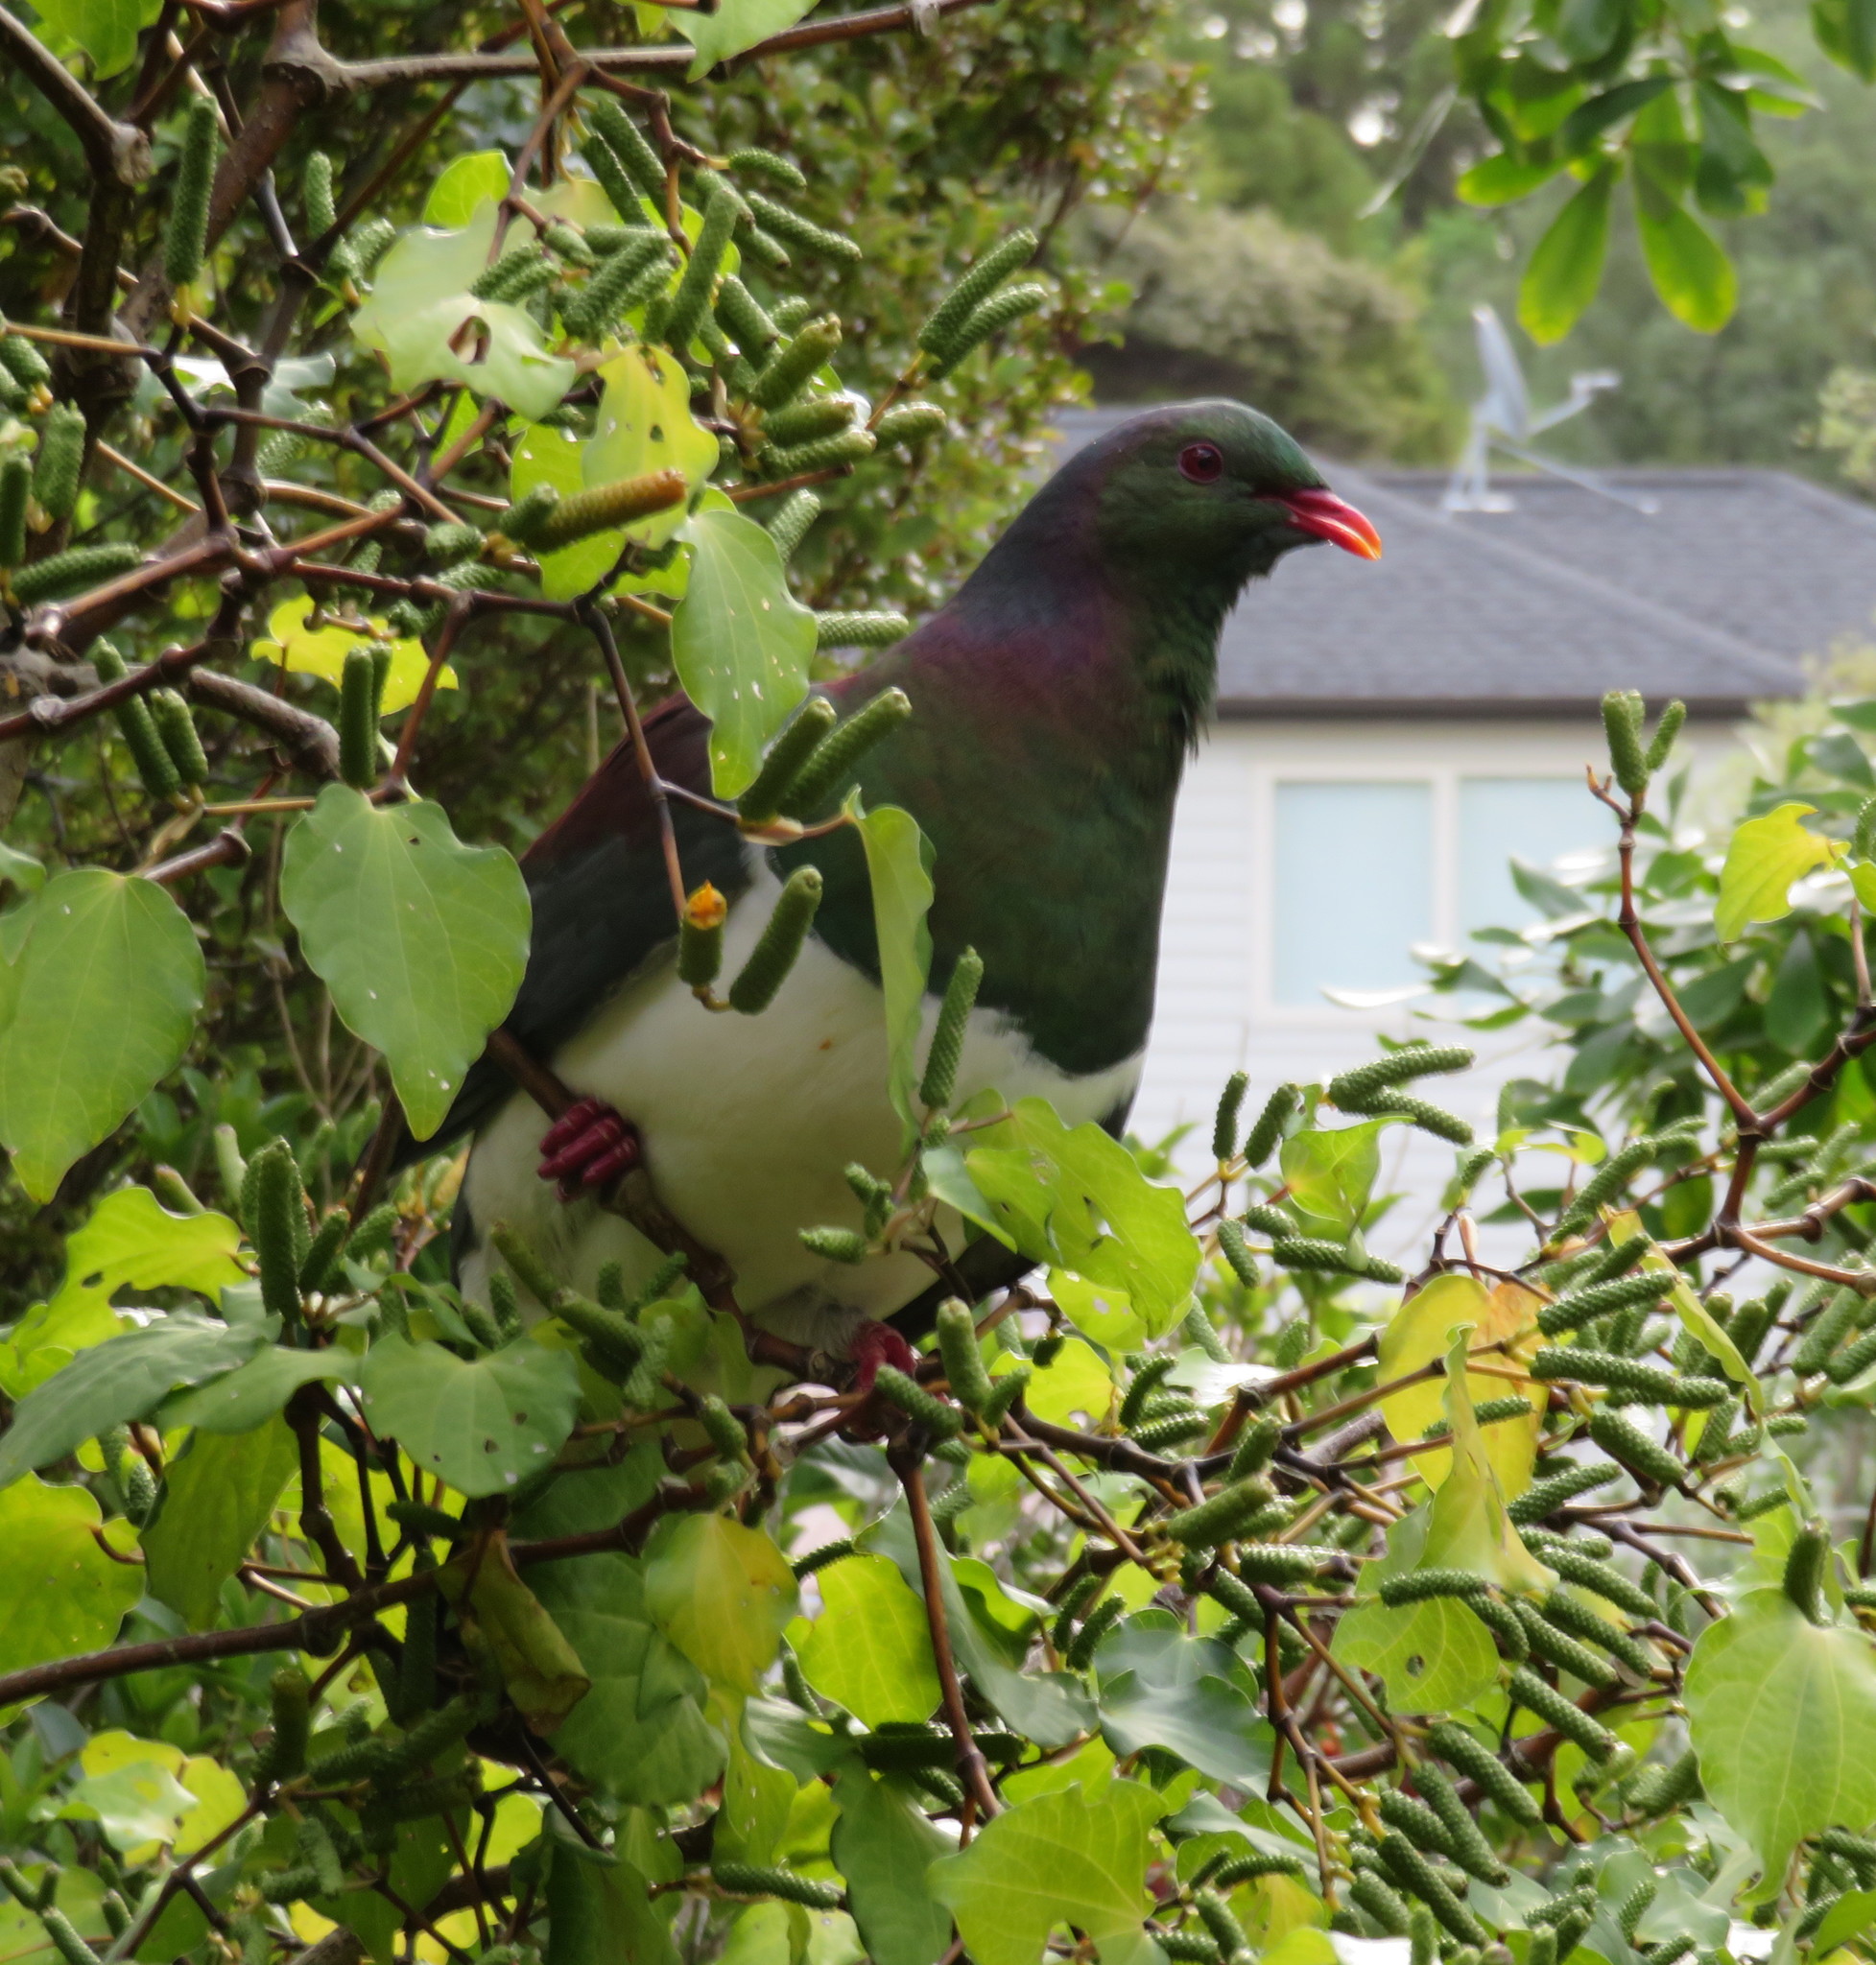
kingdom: Animalia
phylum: Chordata
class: Aves
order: Columbiformes
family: Columbidae
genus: Hemiphaga
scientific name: Hemiphaga novaeseelandiae
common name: New zealand pigeon
